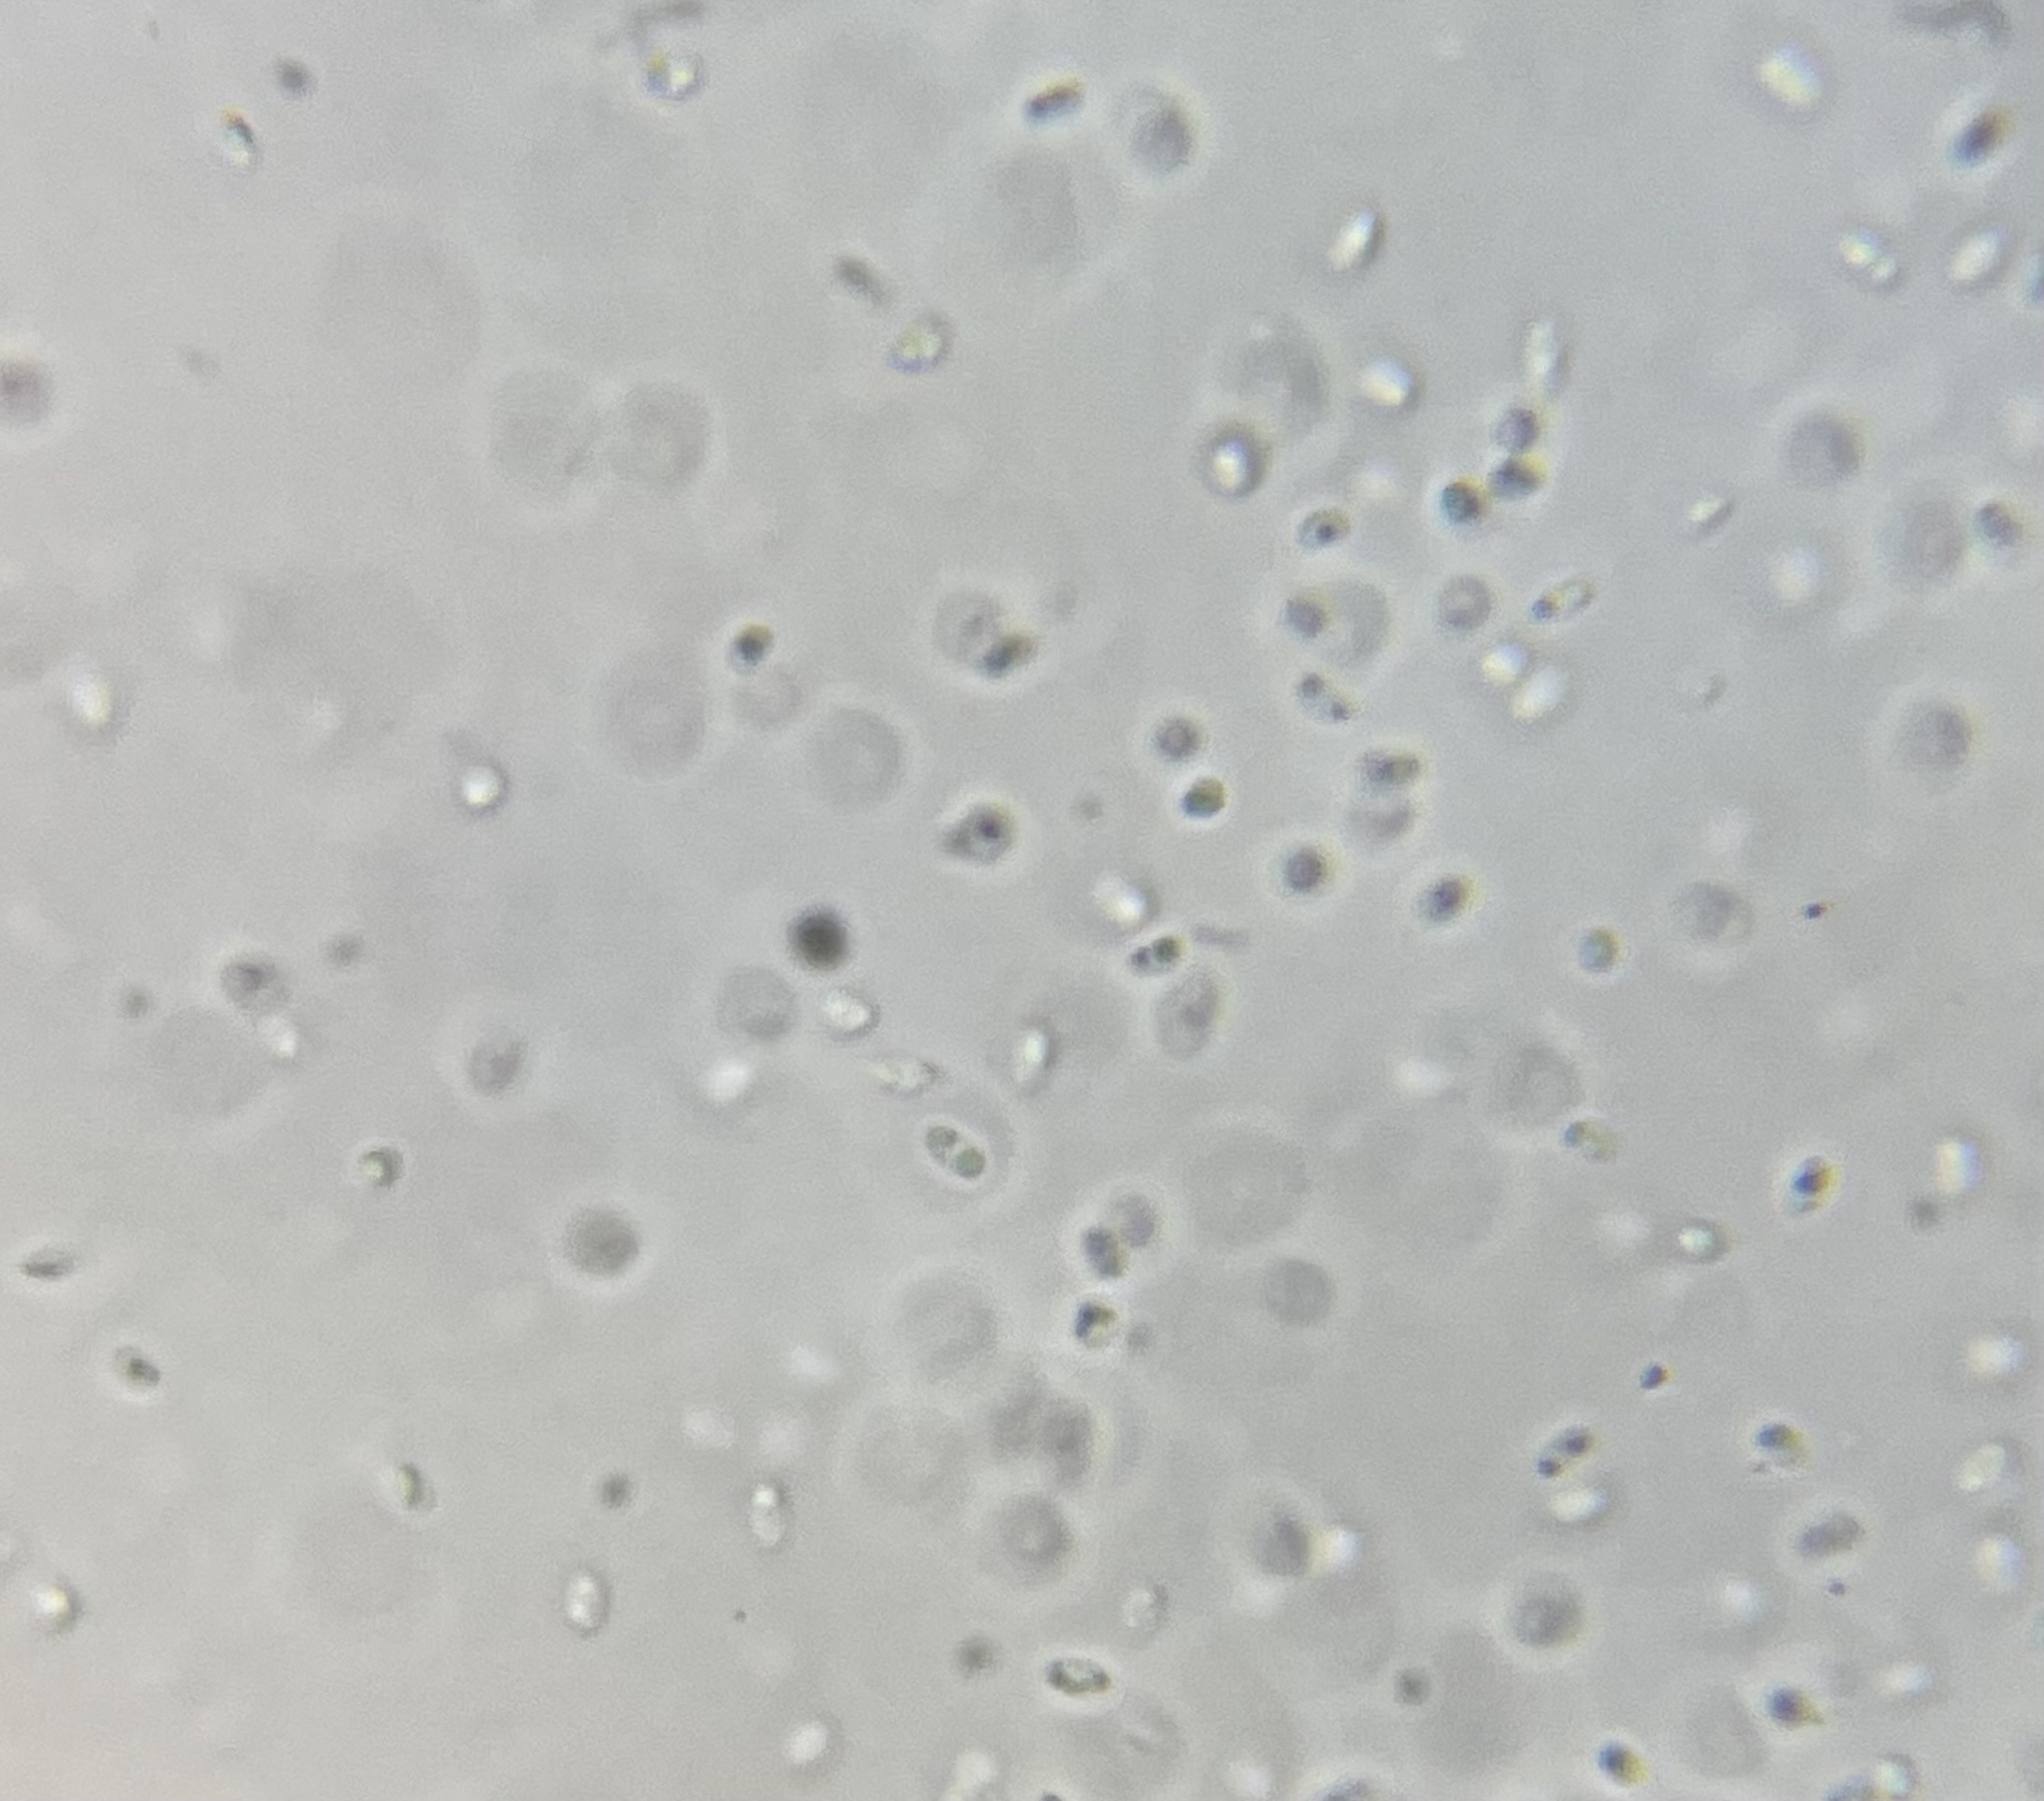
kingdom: Fungi
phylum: Ascomycota
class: Leotiomycetes
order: Helotiales
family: Pezizellaceae
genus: Calycina
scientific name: Calycina citrina
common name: Yellow fairy cups
